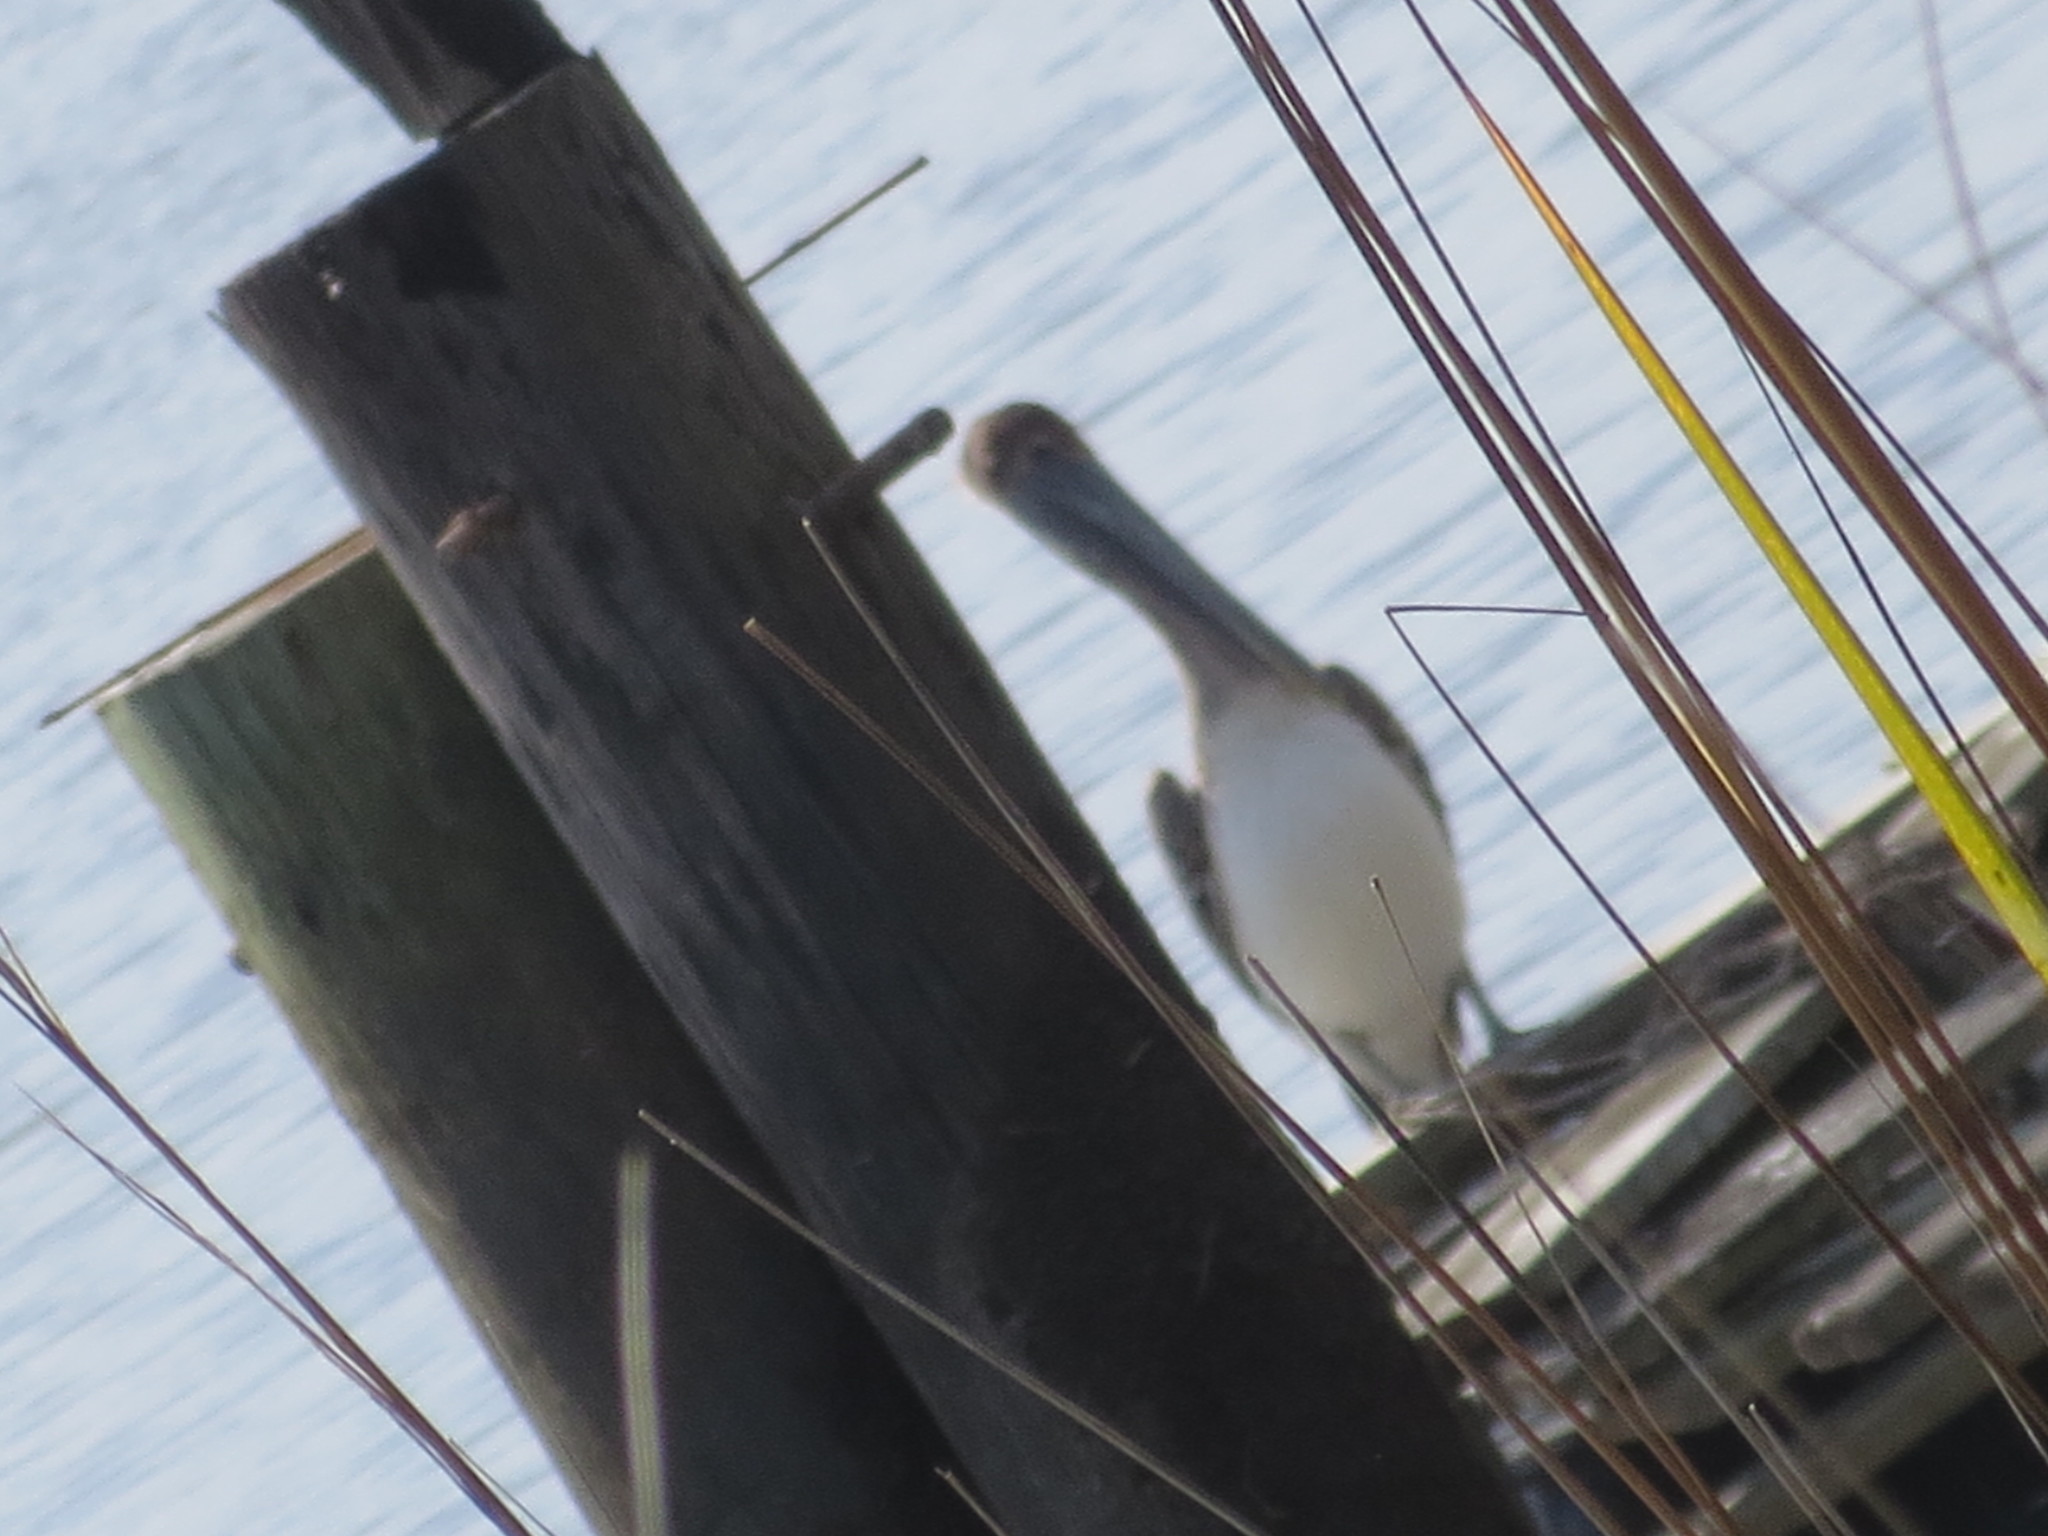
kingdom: Animalia
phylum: Chordata
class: Aves
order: Pelecaniformes
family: Pelecanidae
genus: Pelecanus
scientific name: Pelecanus occidentalis
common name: Brown pelican
